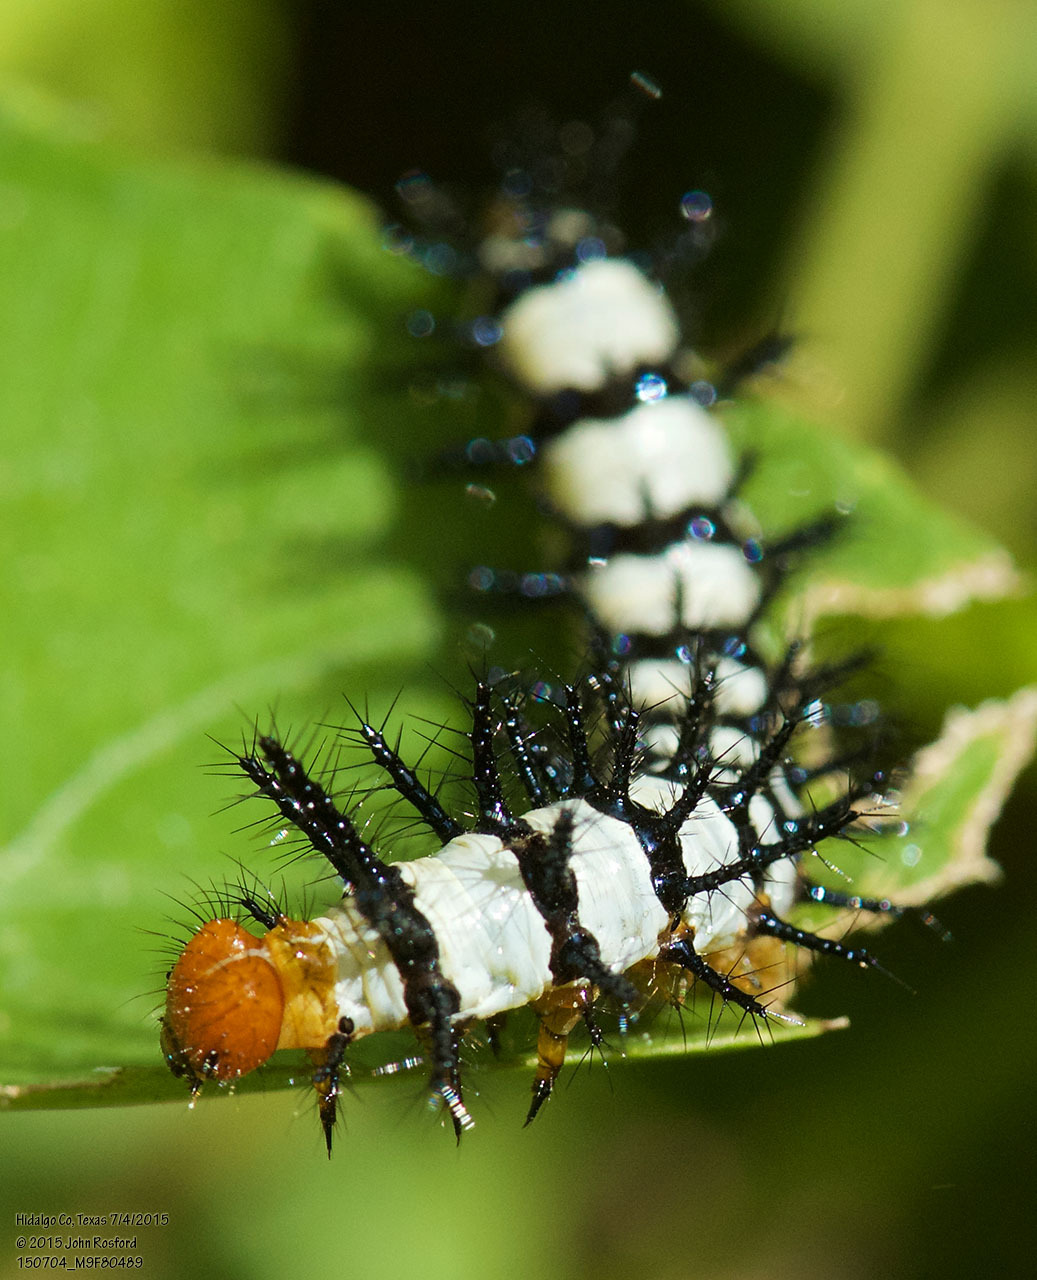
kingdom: Animalia
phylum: Arthropoda
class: Insecta
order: Lepidoptera
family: Nymphalidae
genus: Chlosyne
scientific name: Chlosyne janais
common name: Crimson patch
